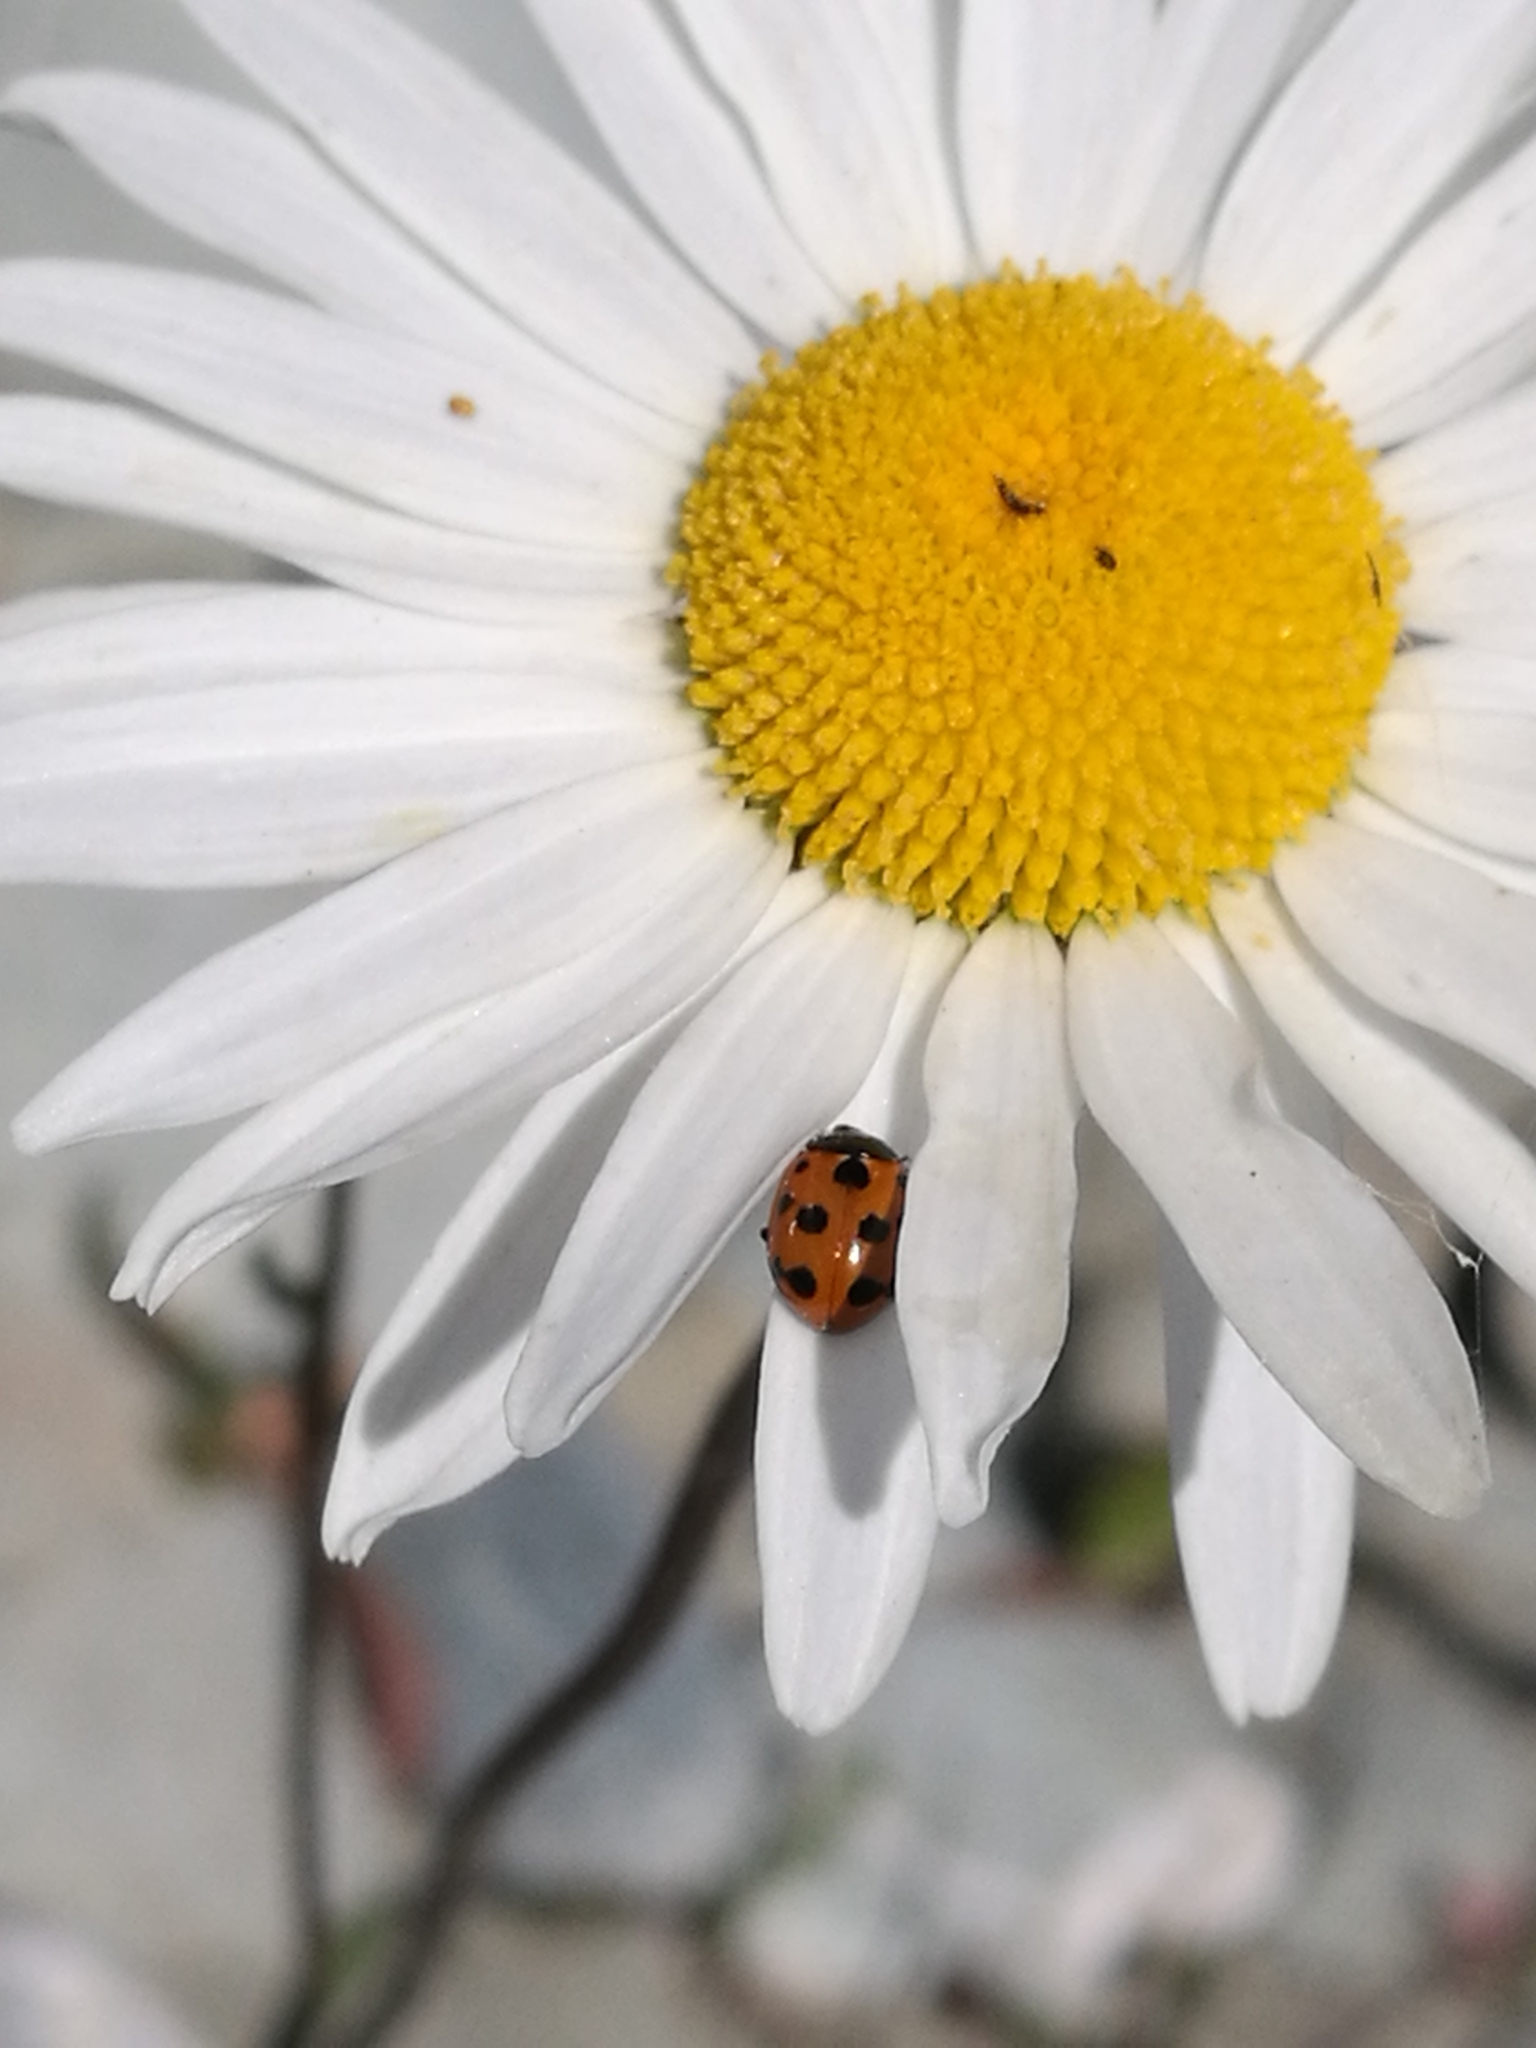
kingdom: Animalia
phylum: Arthropoda
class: Insecta
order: Coleoptera
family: Coccinellidae
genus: Coccinella
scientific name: Coccinella undecimpunctata
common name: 11-spot ladybird
